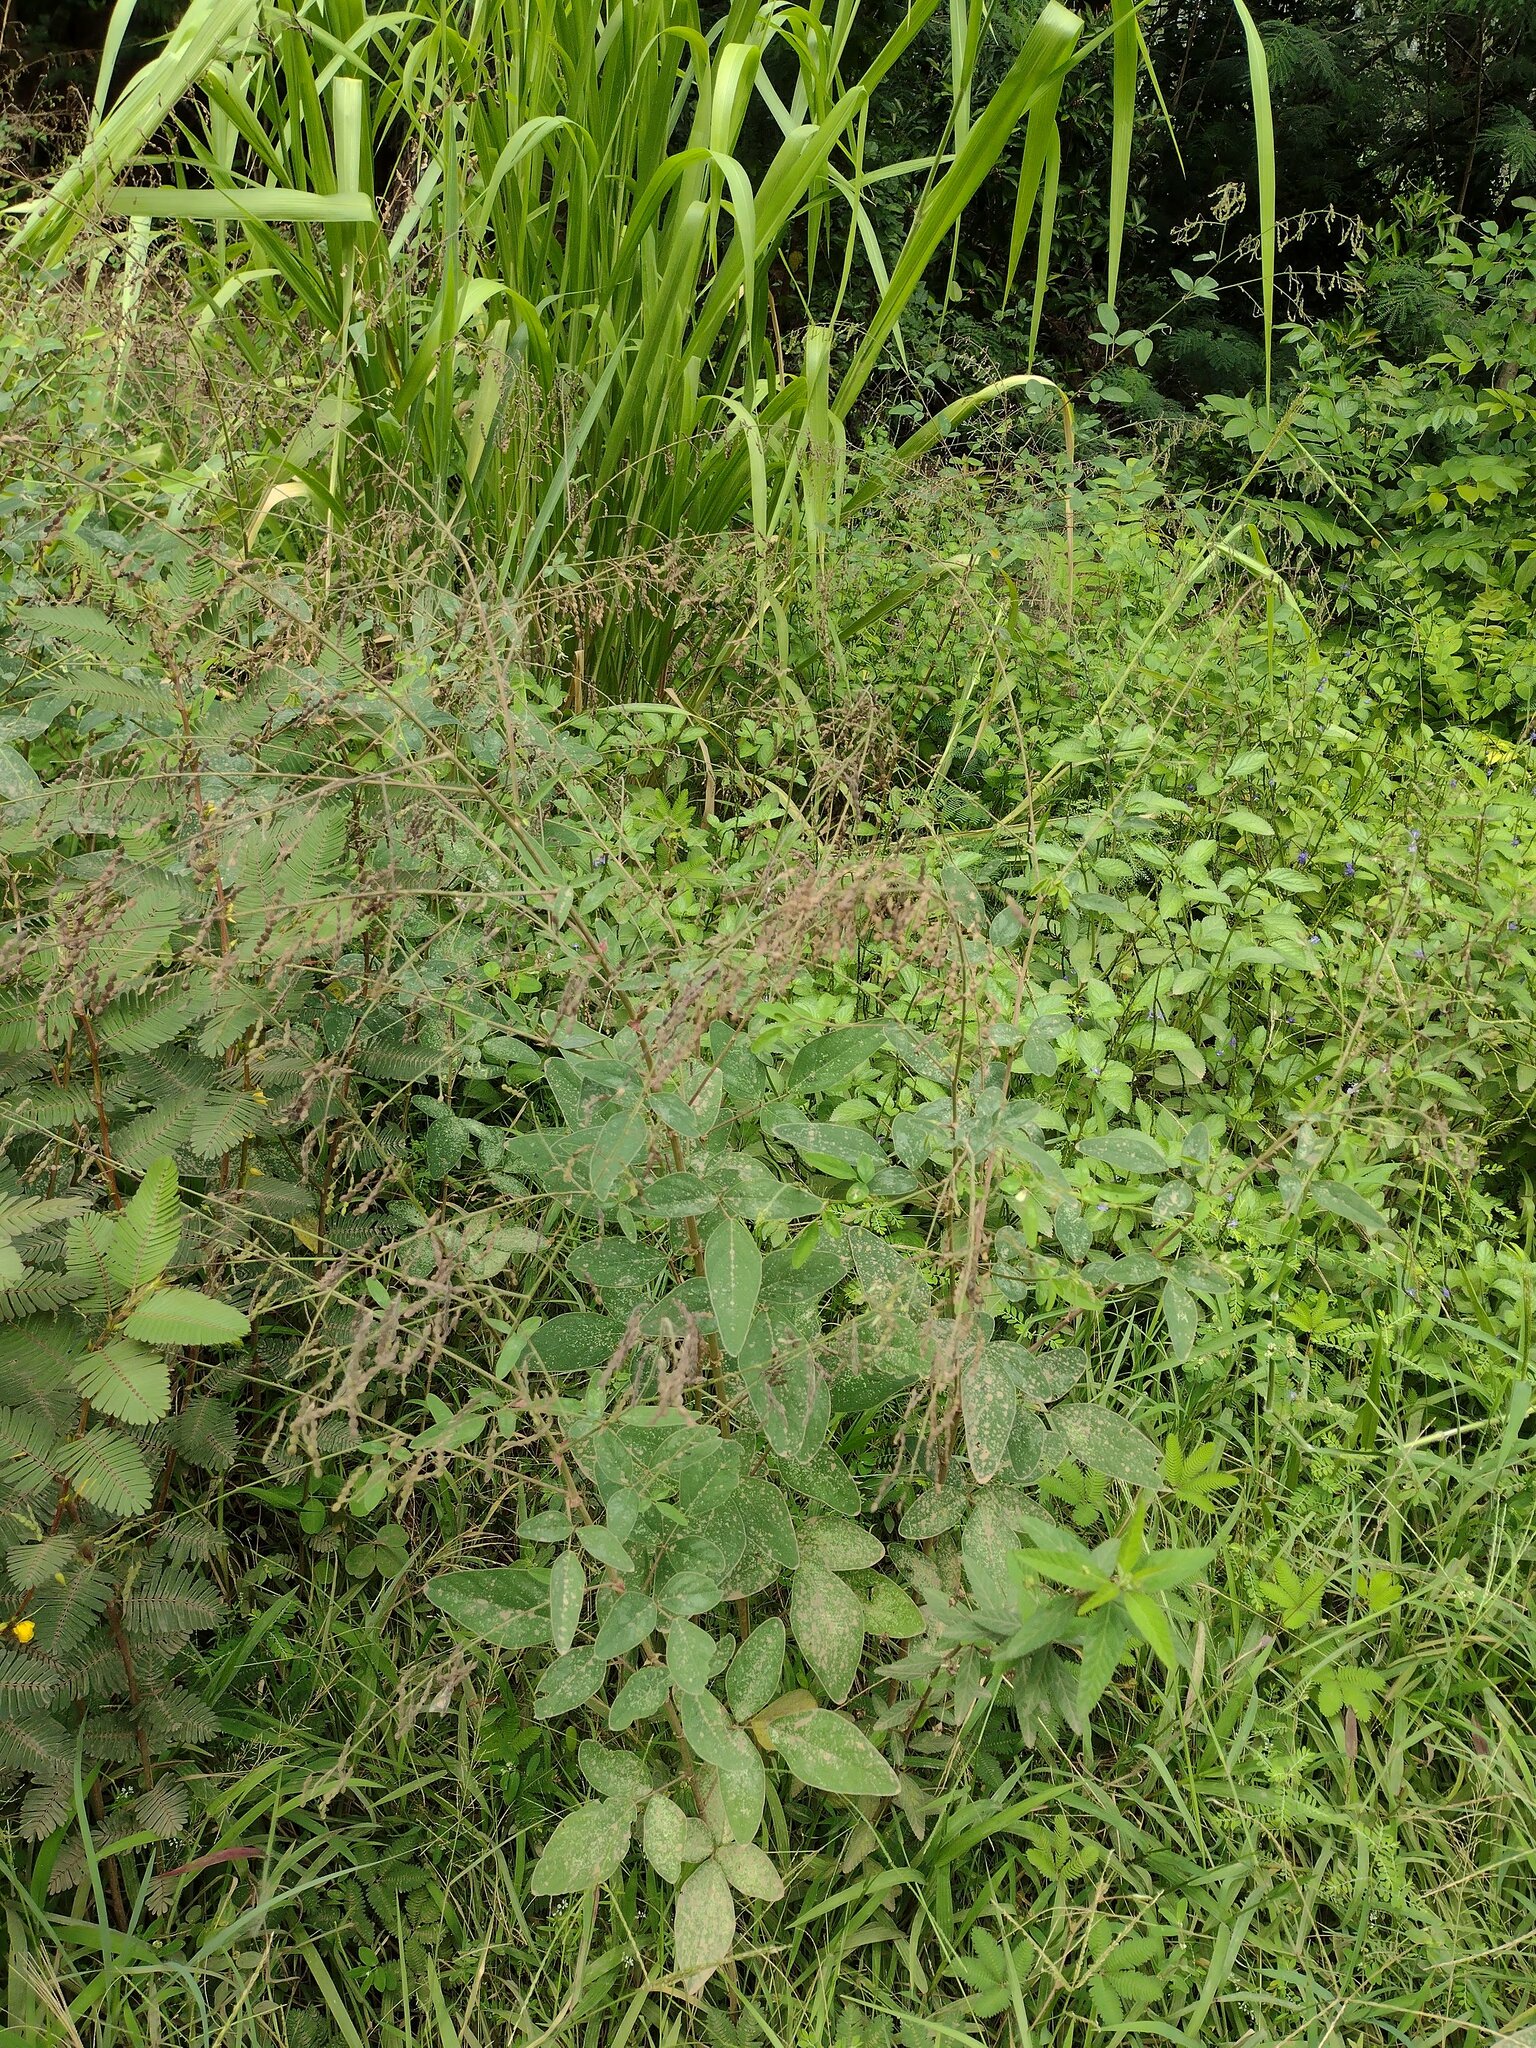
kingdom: Plantae
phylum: Tracheophyta
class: Magnoliopsida
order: Fabales
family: Fabaceae
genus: Desmodium
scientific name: Desmodium tortuosum
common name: Dixie ticktrefoil
